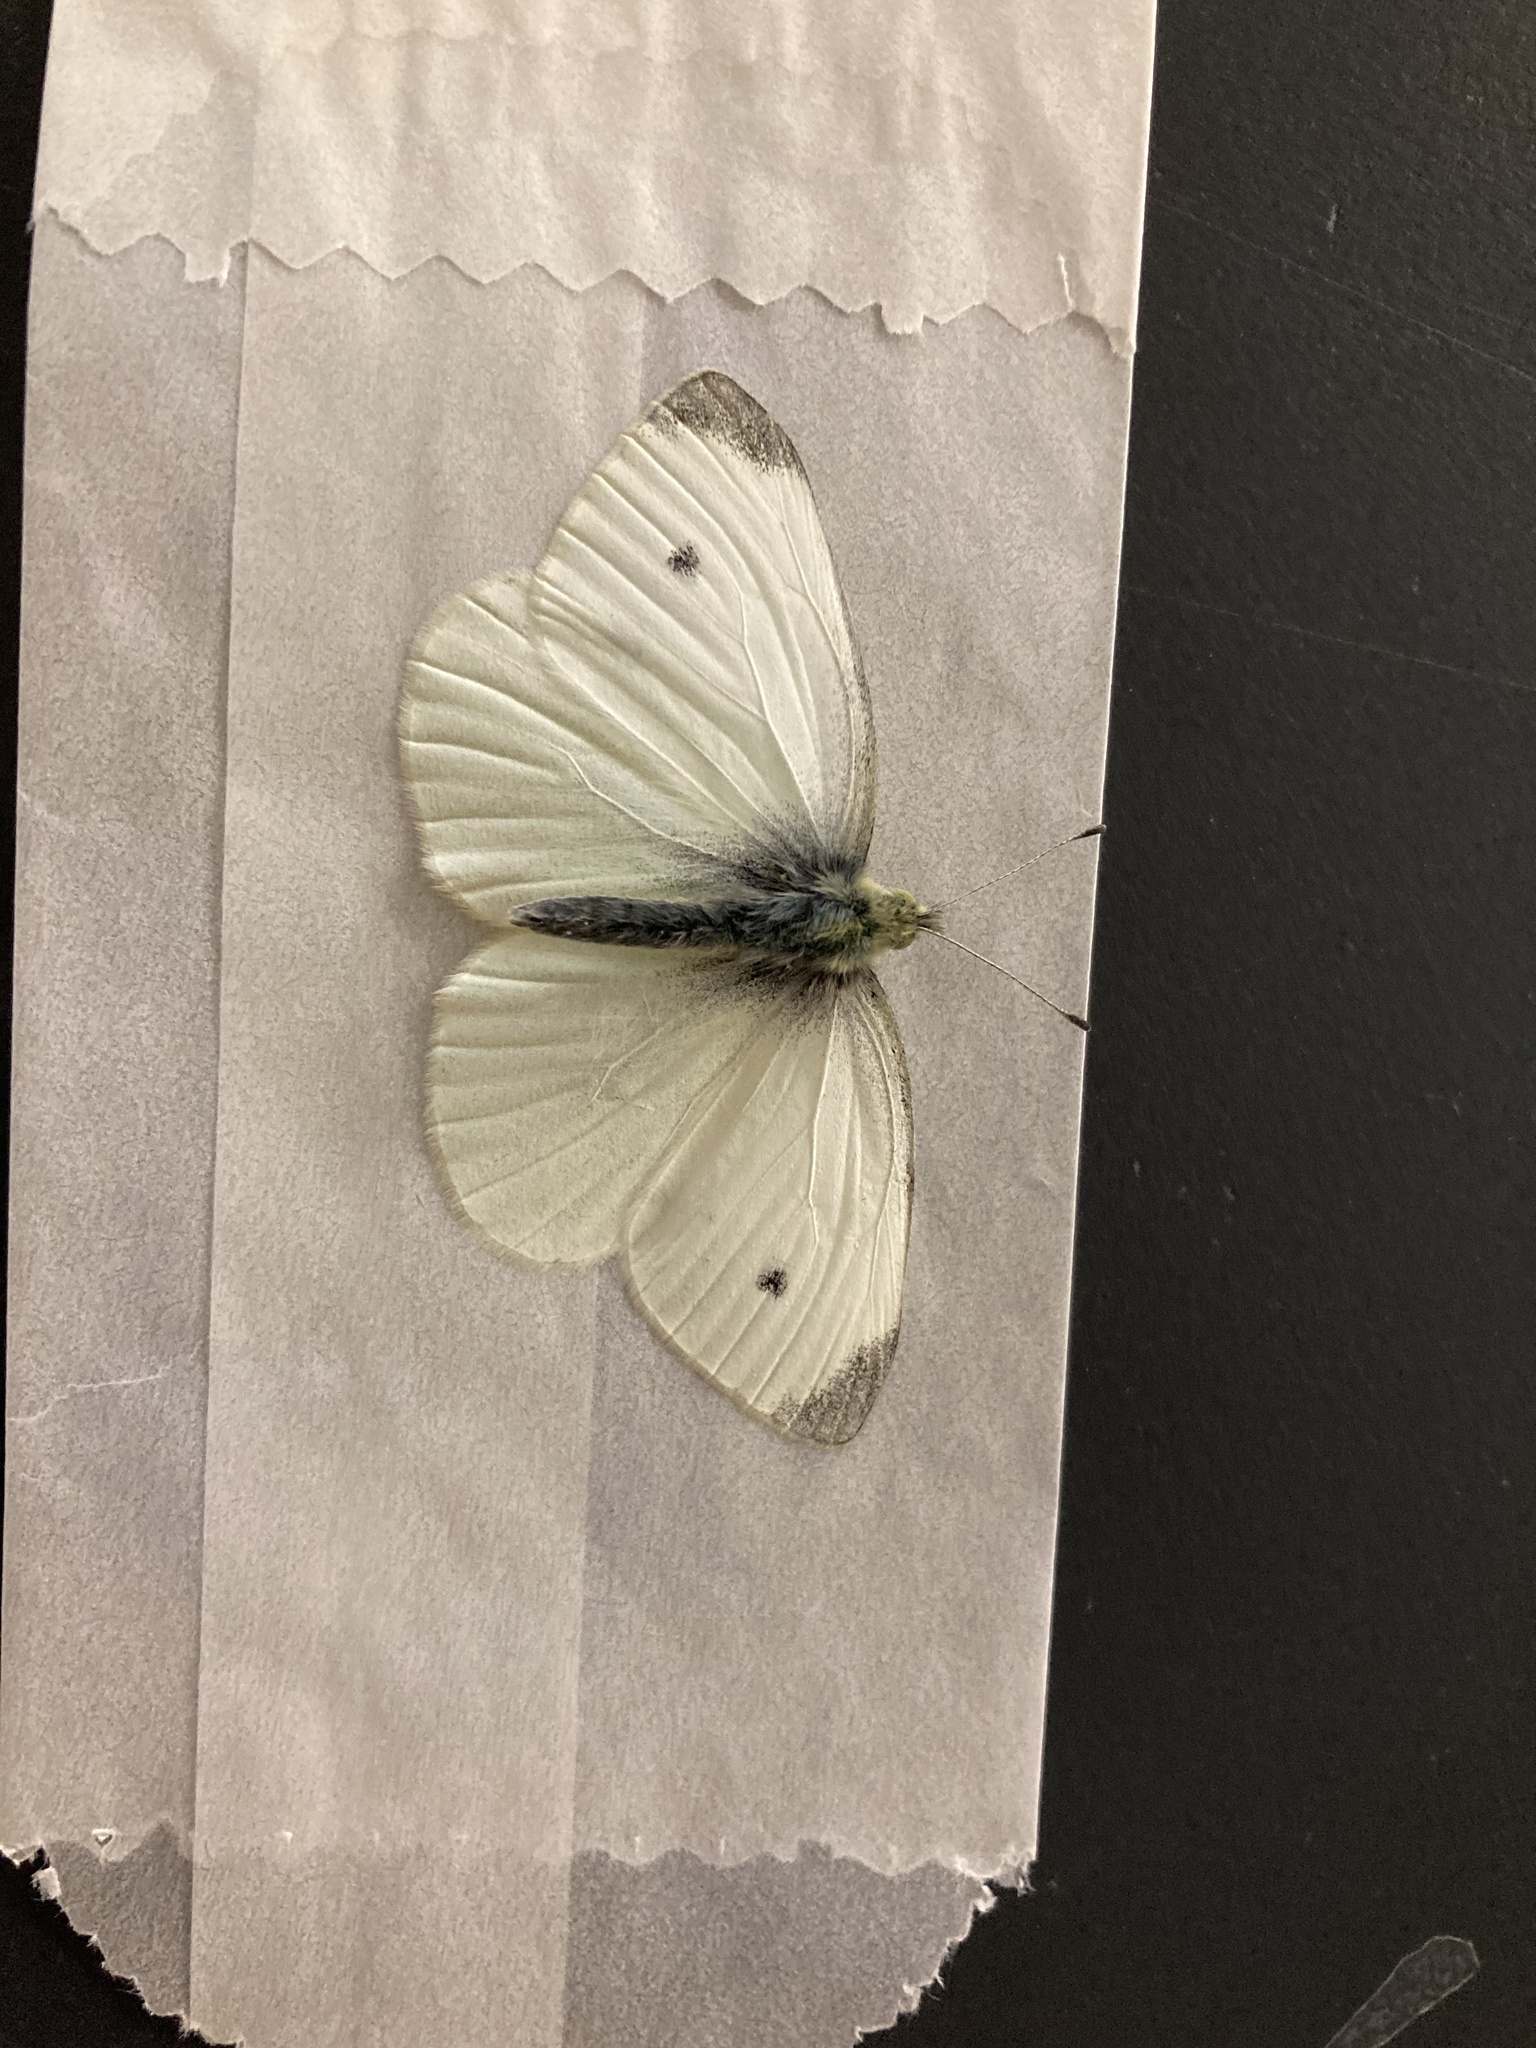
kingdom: Animalia
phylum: Arthropoda
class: Insecta
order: Lepidoptera
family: Pieridae
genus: Pieris
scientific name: Pieris rapae
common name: Small white
